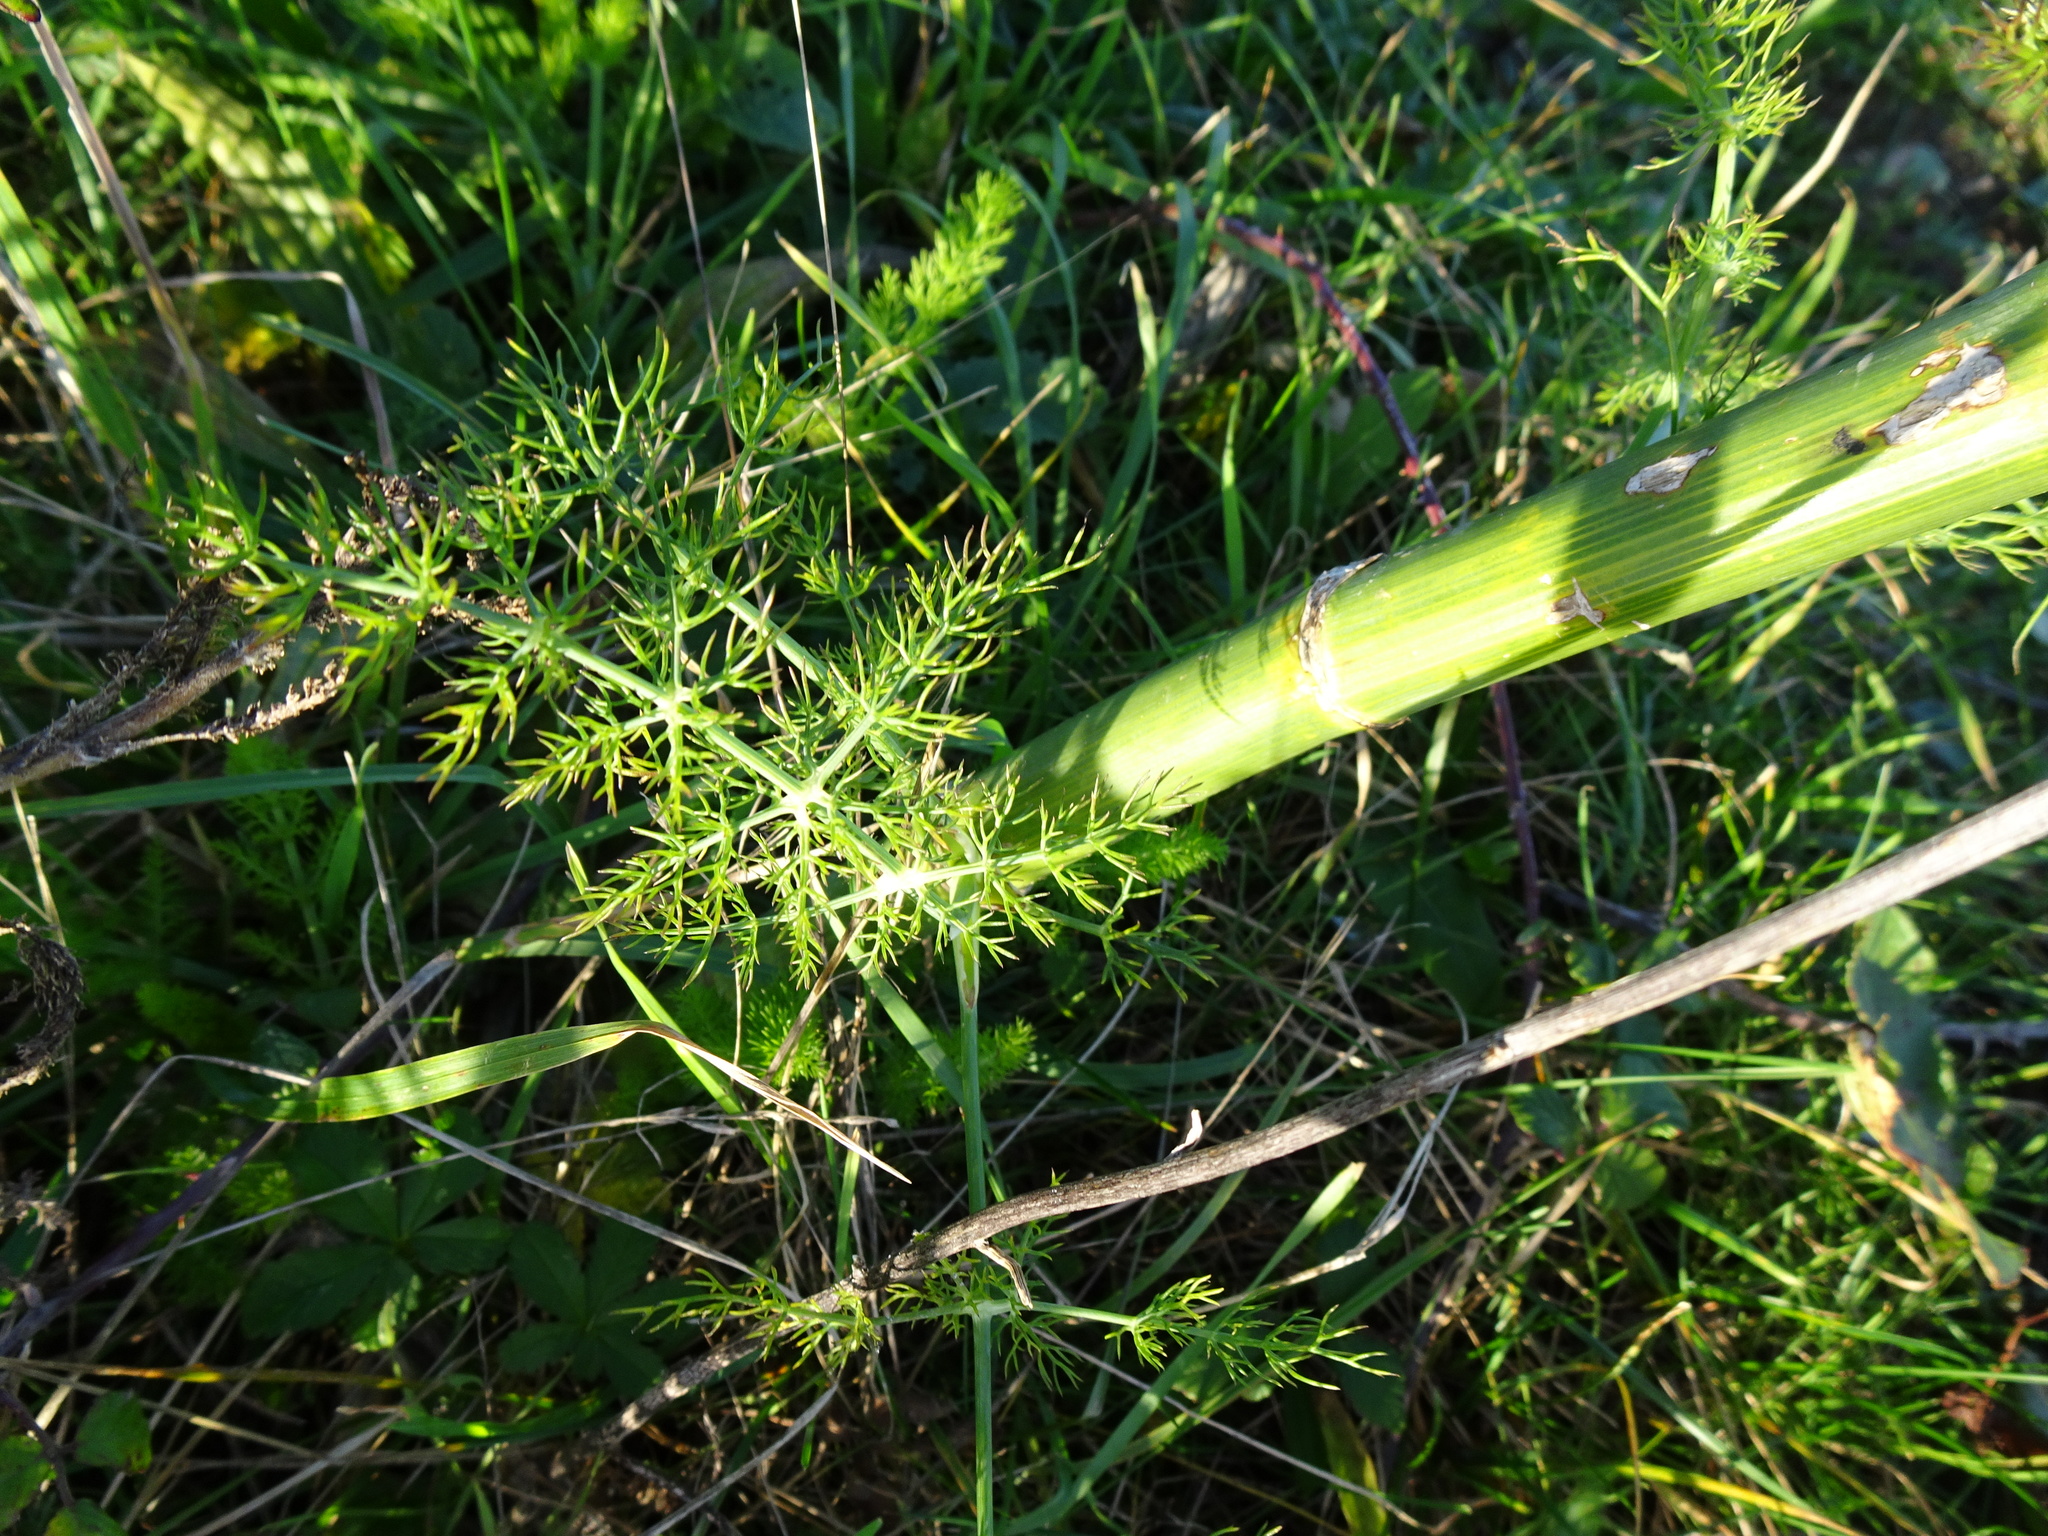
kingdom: Plantae
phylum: Tracheophyta
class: Magnoliopsida
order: Apiales
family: Apiaceae
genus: Foeniculum
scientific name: Foeniculum vulgare
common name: Fennel
